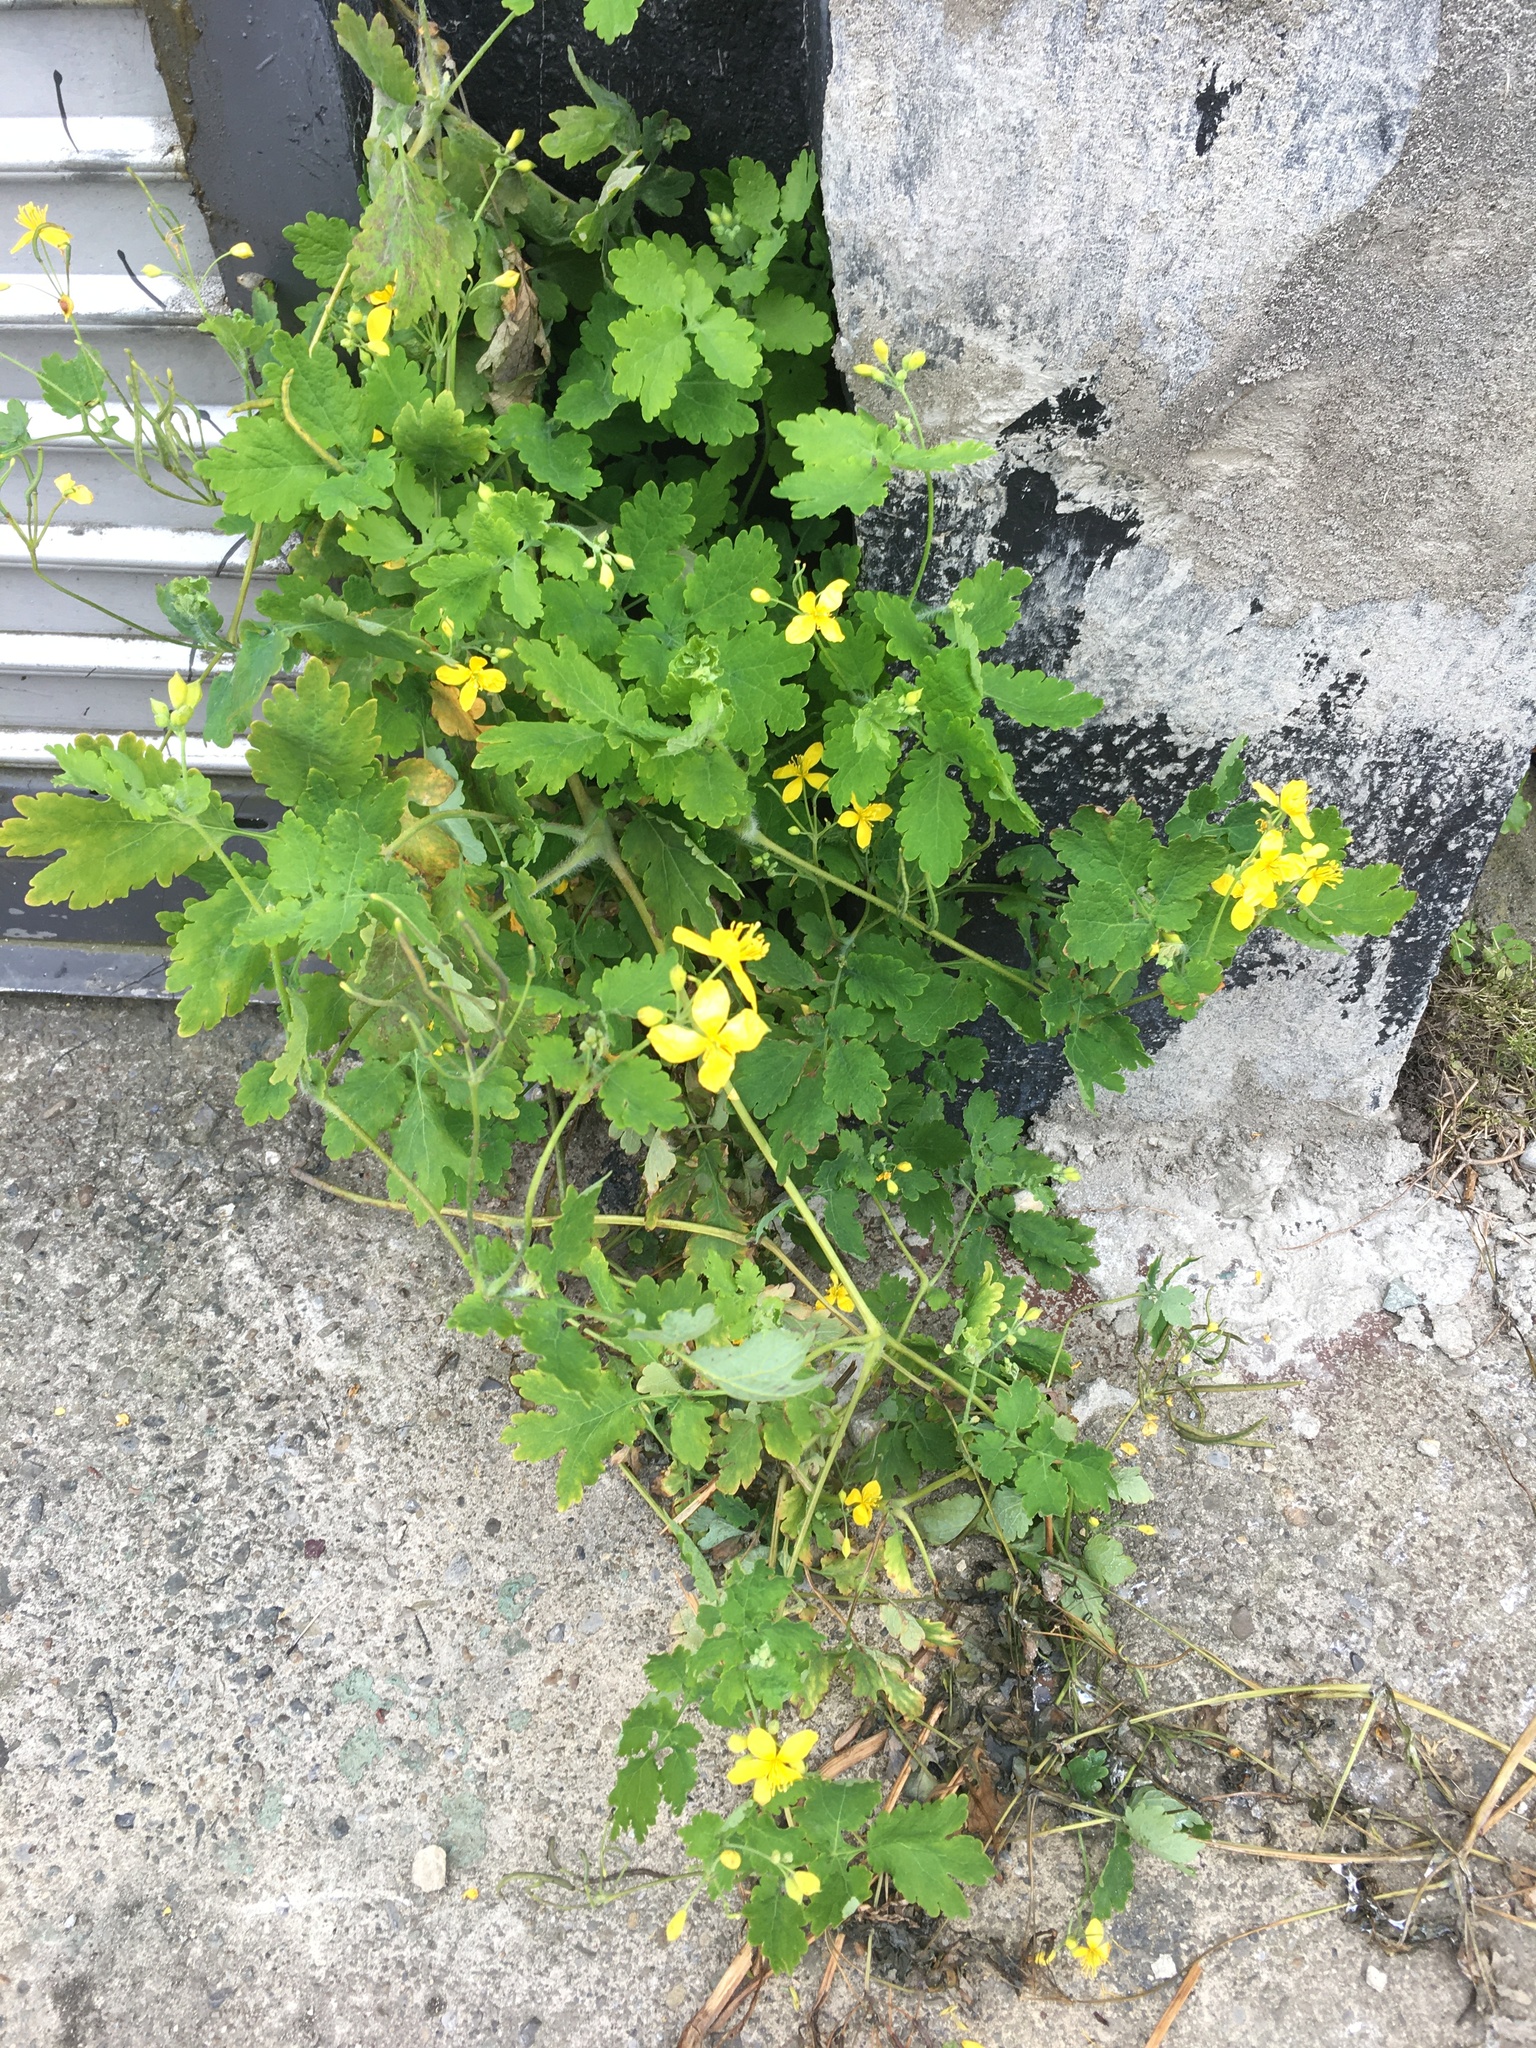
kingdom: Plantae
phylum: Tracheophyta
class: Magnoliopsida
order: Ranunculales
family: Papaveraceae
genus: Chelidonium
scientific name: Chelidonium majus
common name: Greater celandine
